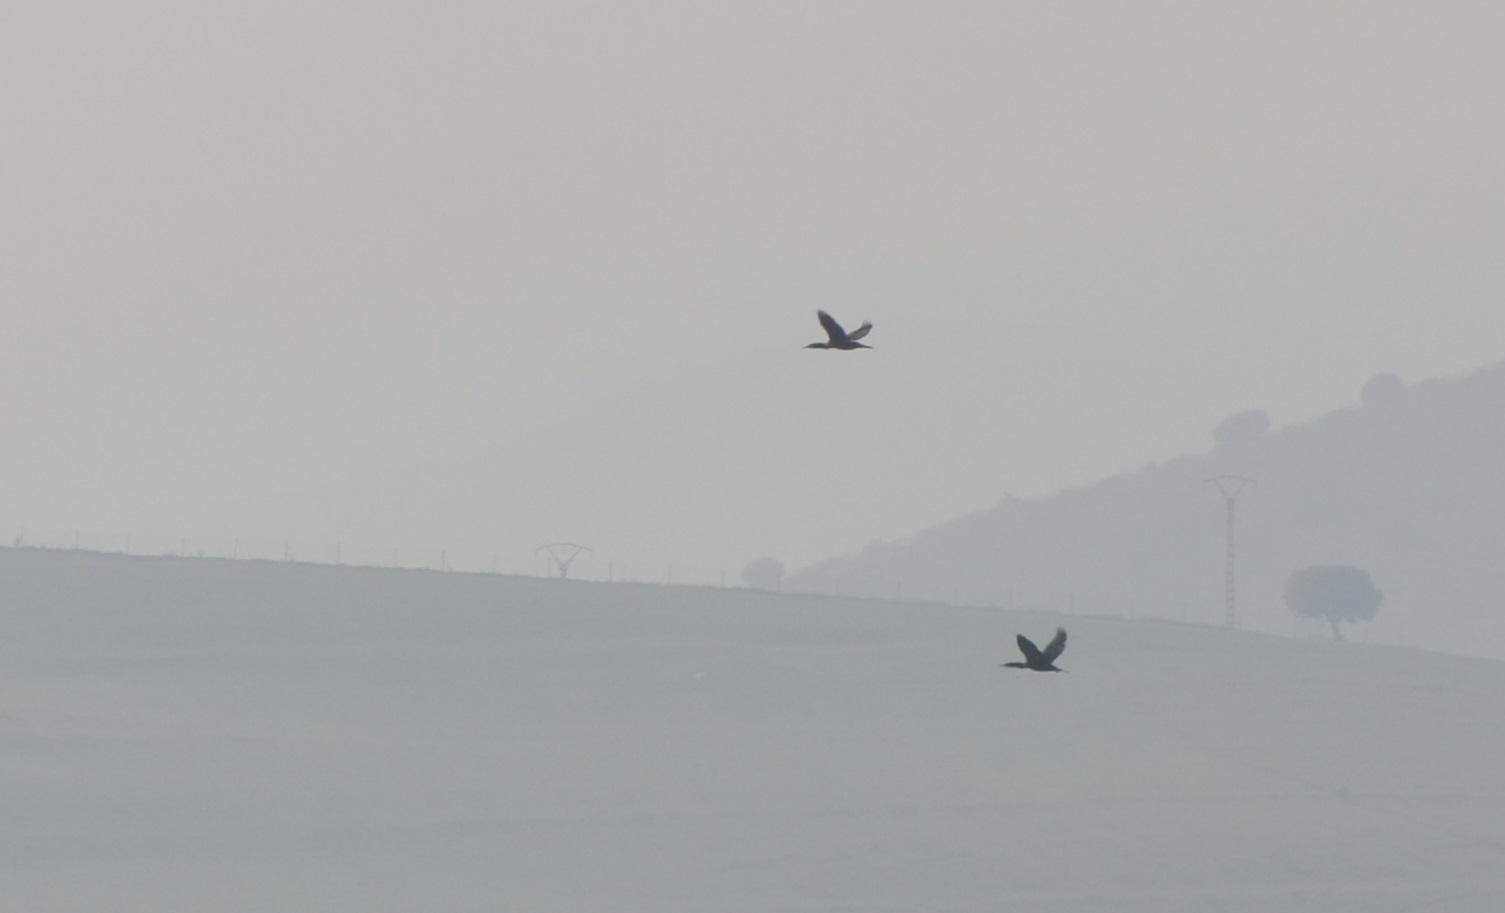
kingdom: Animalia
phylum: Chordata
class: Aves
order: Suliformes
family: Phalacrocoracidae
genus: Phalacrocorax
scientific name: Phalacrocorax carbo
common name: Great cormorant
